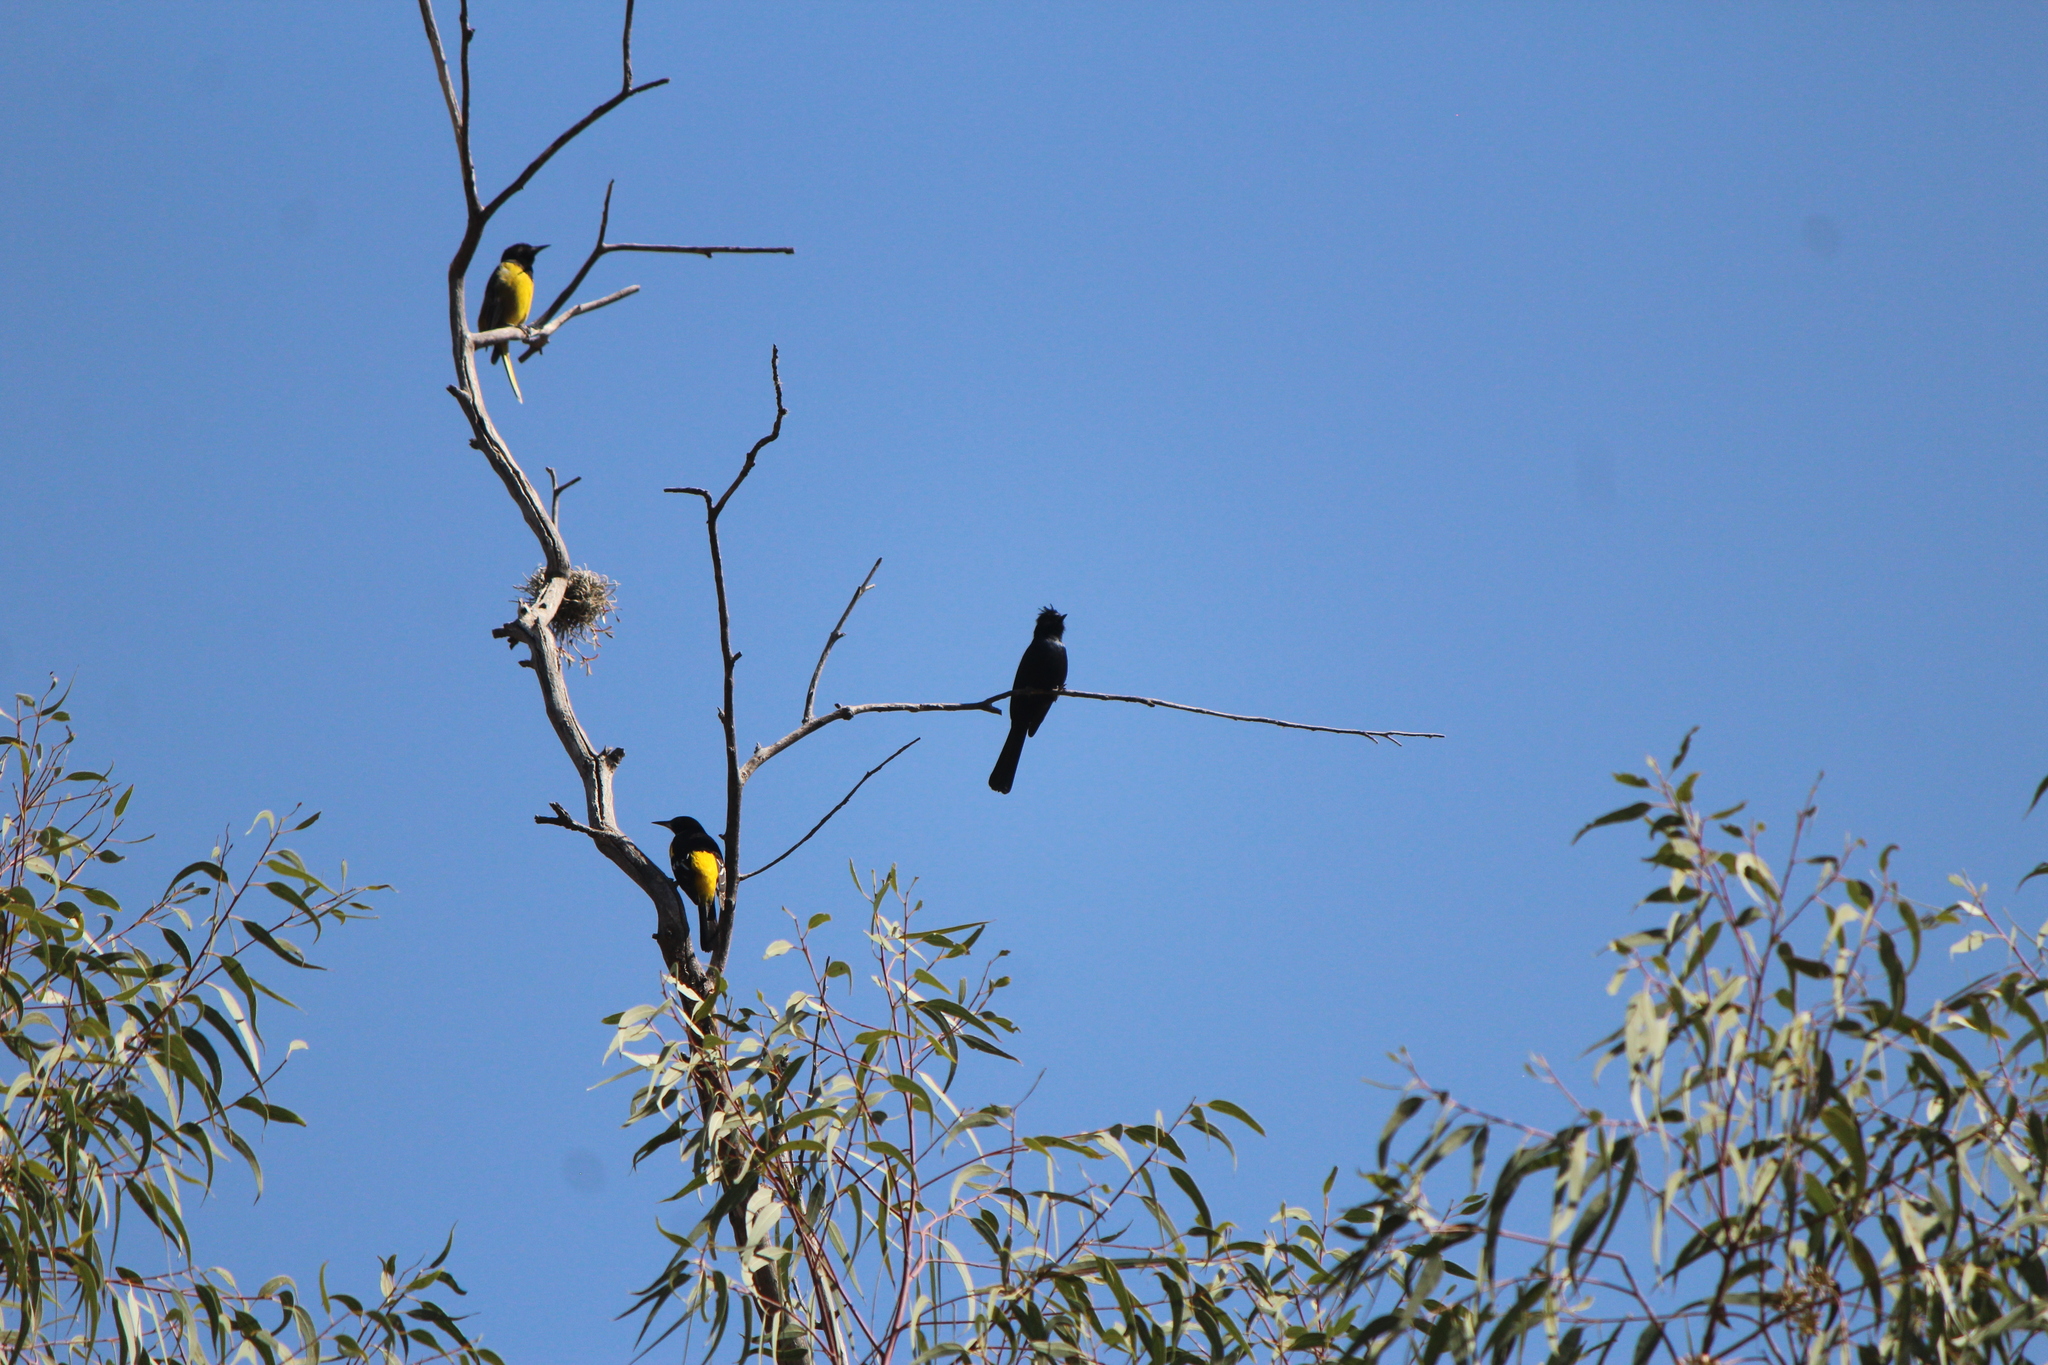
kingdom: Animalia
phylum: Chordata
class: Aves
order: Passeriformes
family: Icteridae
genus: Icterus
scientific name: Icterus parisorum
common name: Scott's oriole
